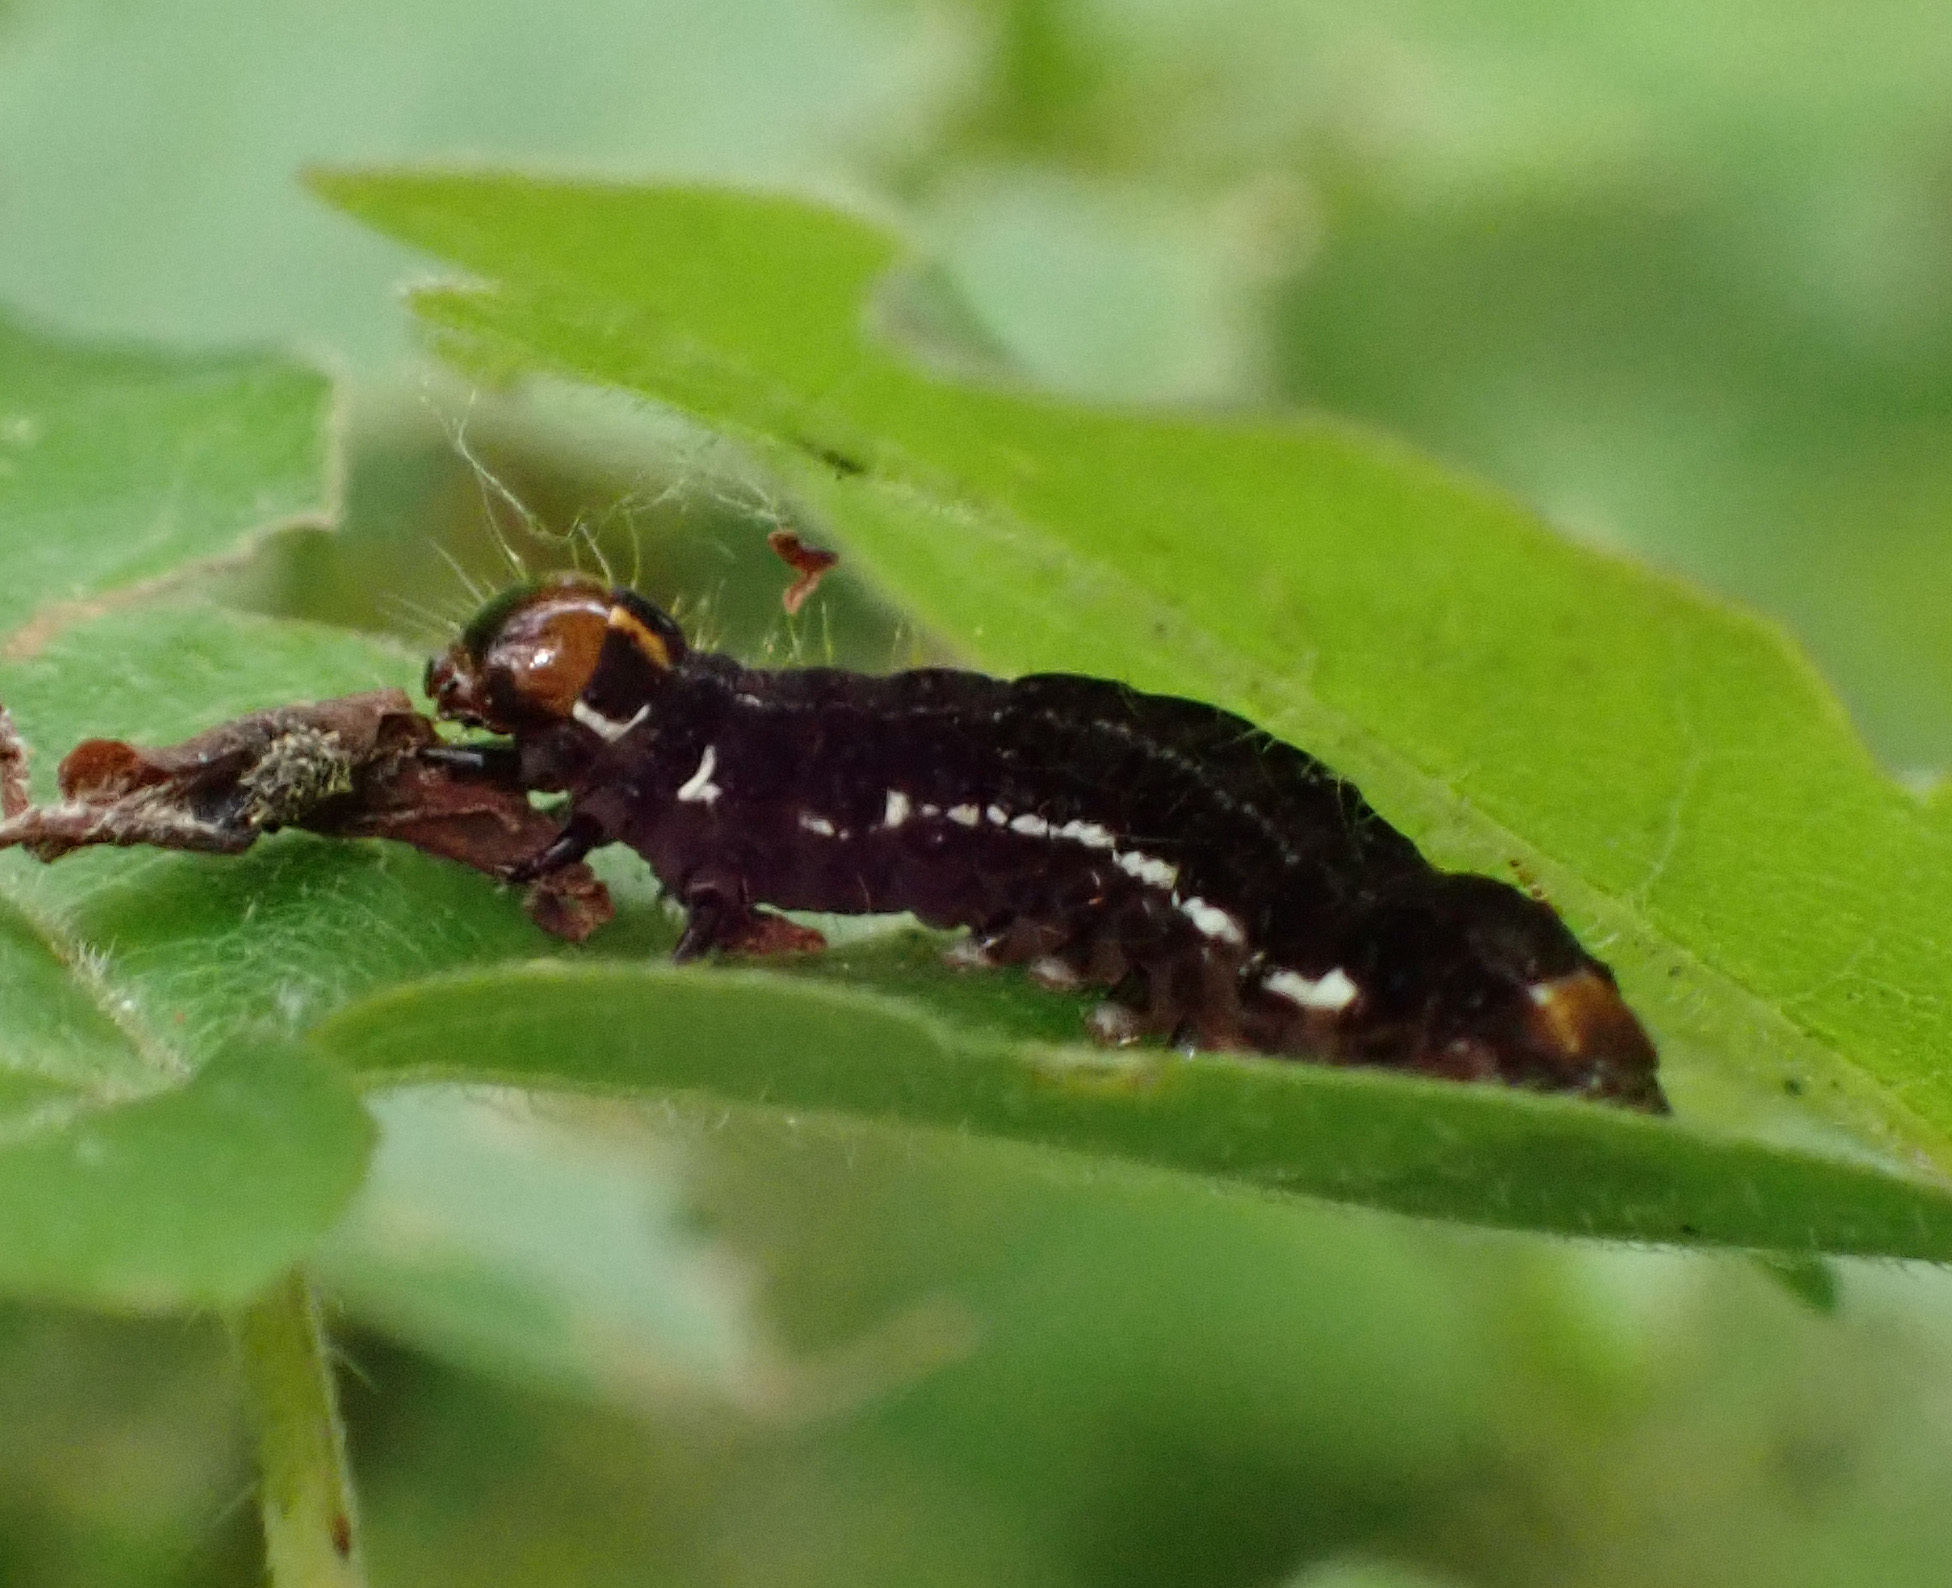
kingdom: Animalia
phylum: Arthropoda
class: Insecta
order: Lepidoptera
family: Noctuidae
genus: Eupsilia
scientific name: Eupsilia transversa
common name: Satellite
